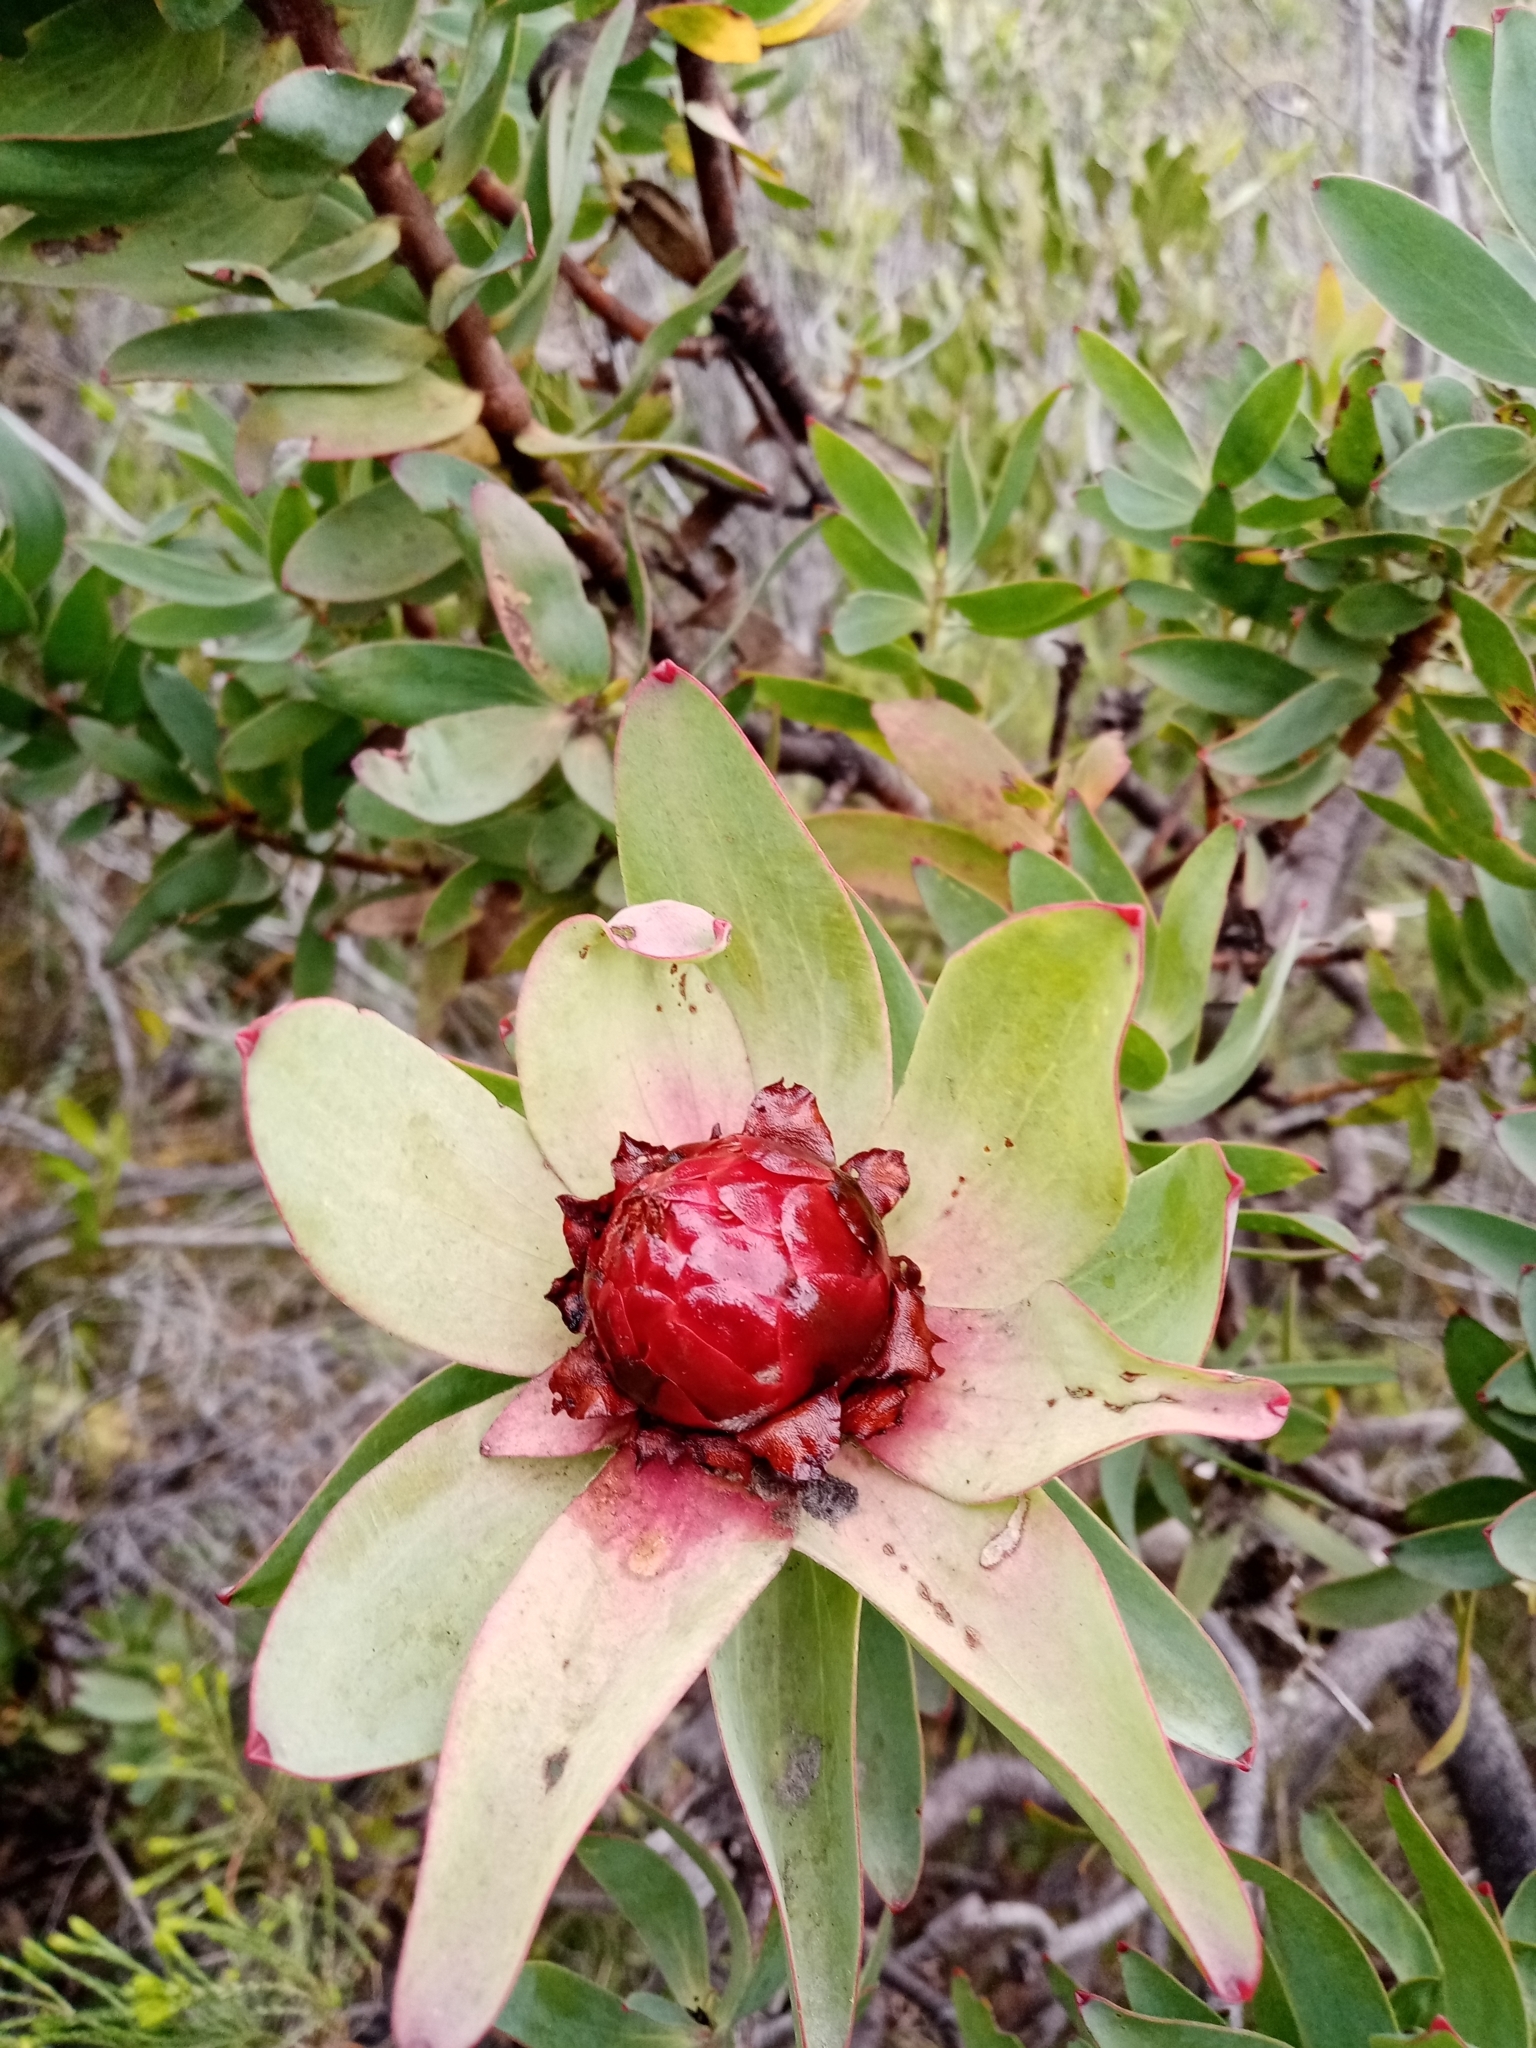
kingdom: Plantae
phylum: Tracheophyta
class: Magnoliopsida
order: Proteales
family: Proteaceae
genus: Leucadendron
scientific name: Leucadendron sessile
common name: Western sunbush
